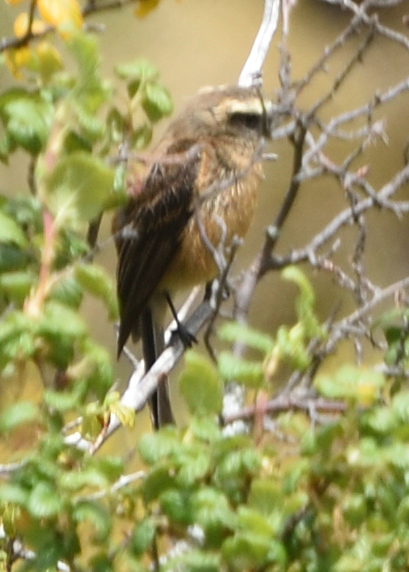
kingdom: Animalia
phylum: Chordata
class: Aves
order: Passeriformes
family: Tyrannidae
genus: Ochthoeca
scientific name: Ochthoeca fumicolor
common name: Brown-backed chat-tyrant
